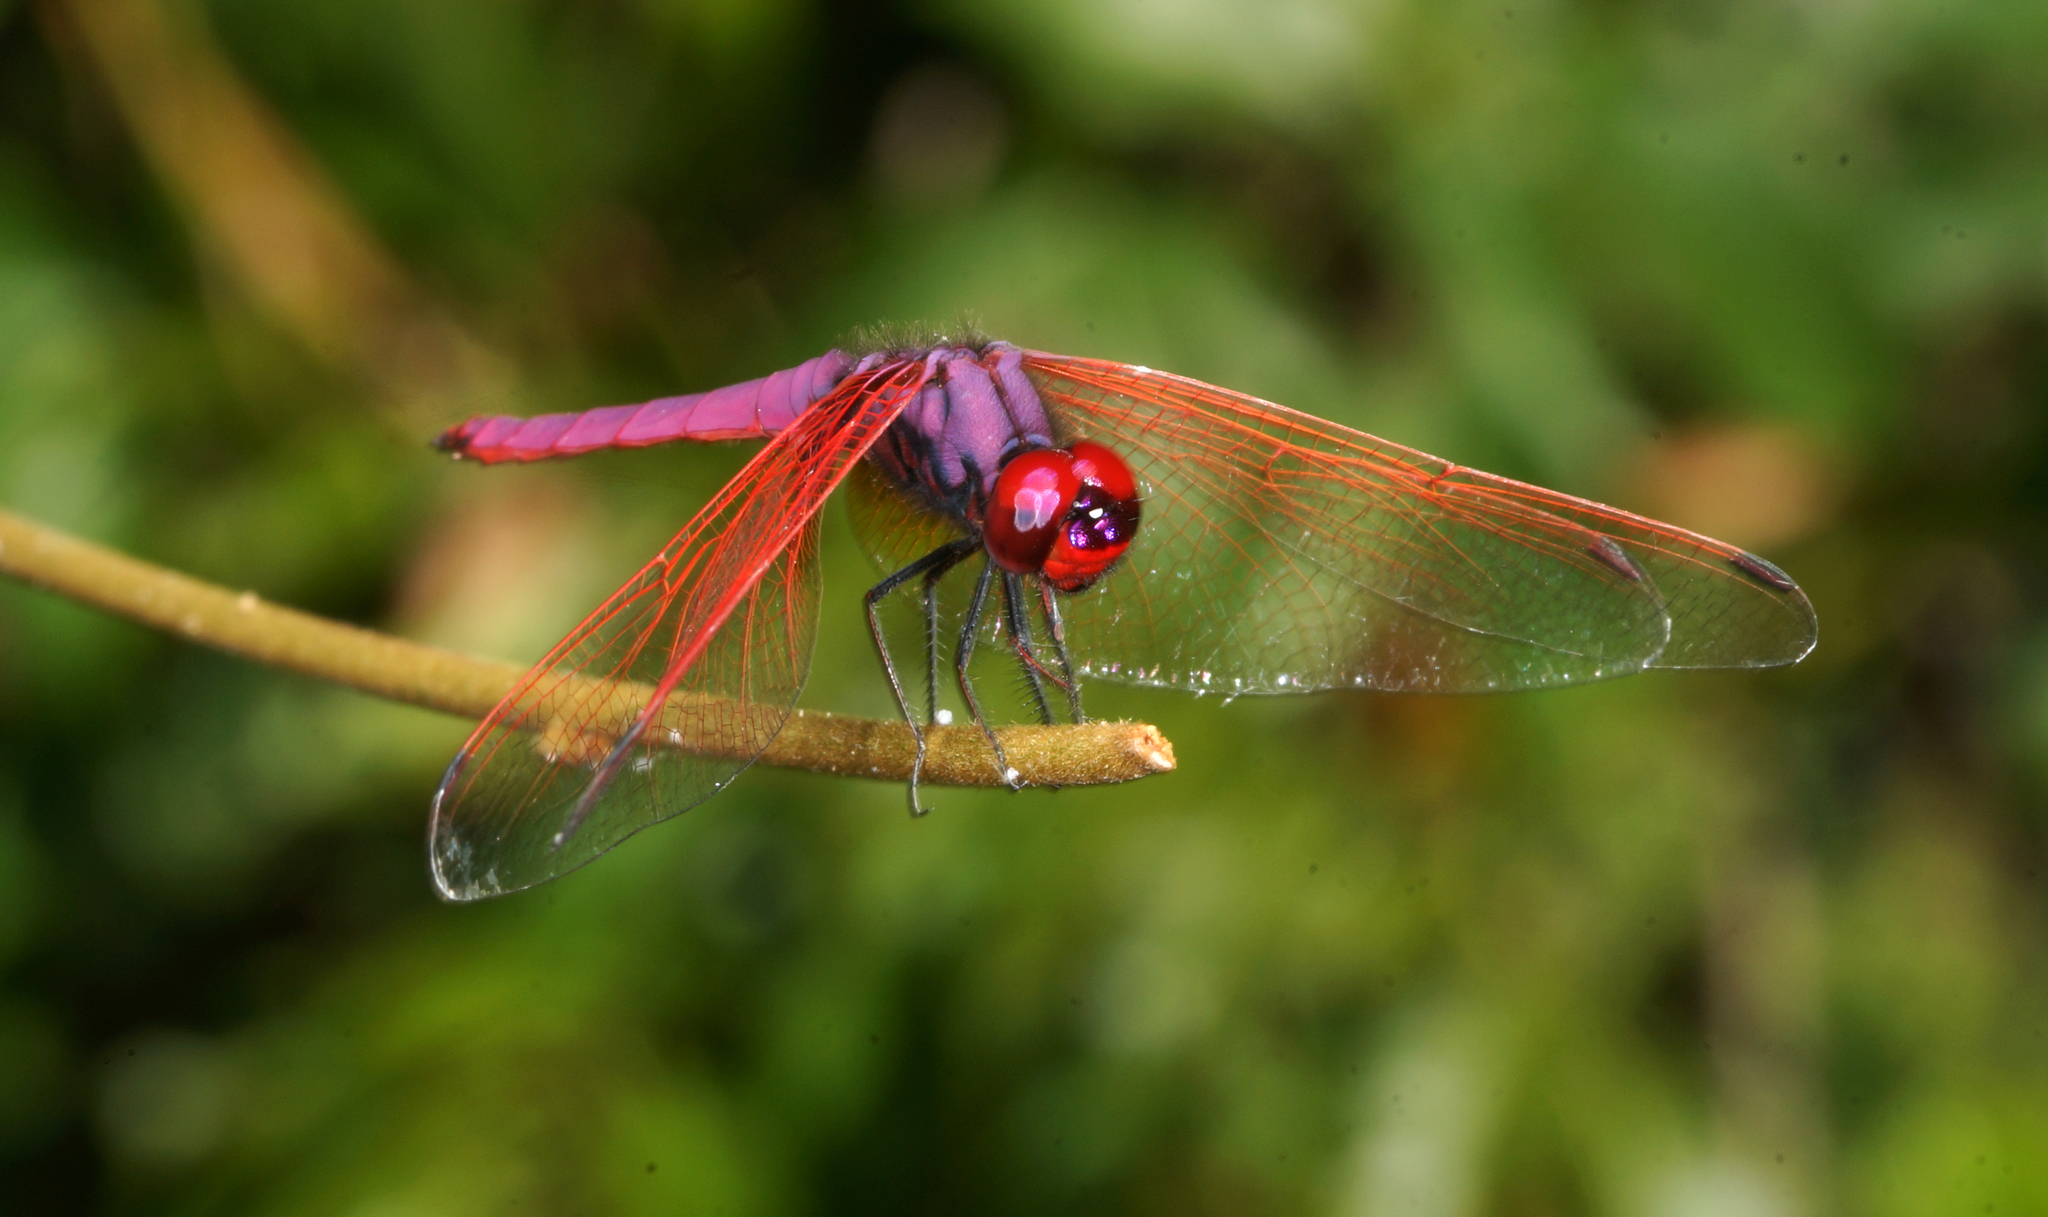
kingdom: Animalia
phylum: Arthropoda
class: Insecta
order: Odonata
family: Libellulidae
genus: Trithemis
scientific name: Trithemis aurora
